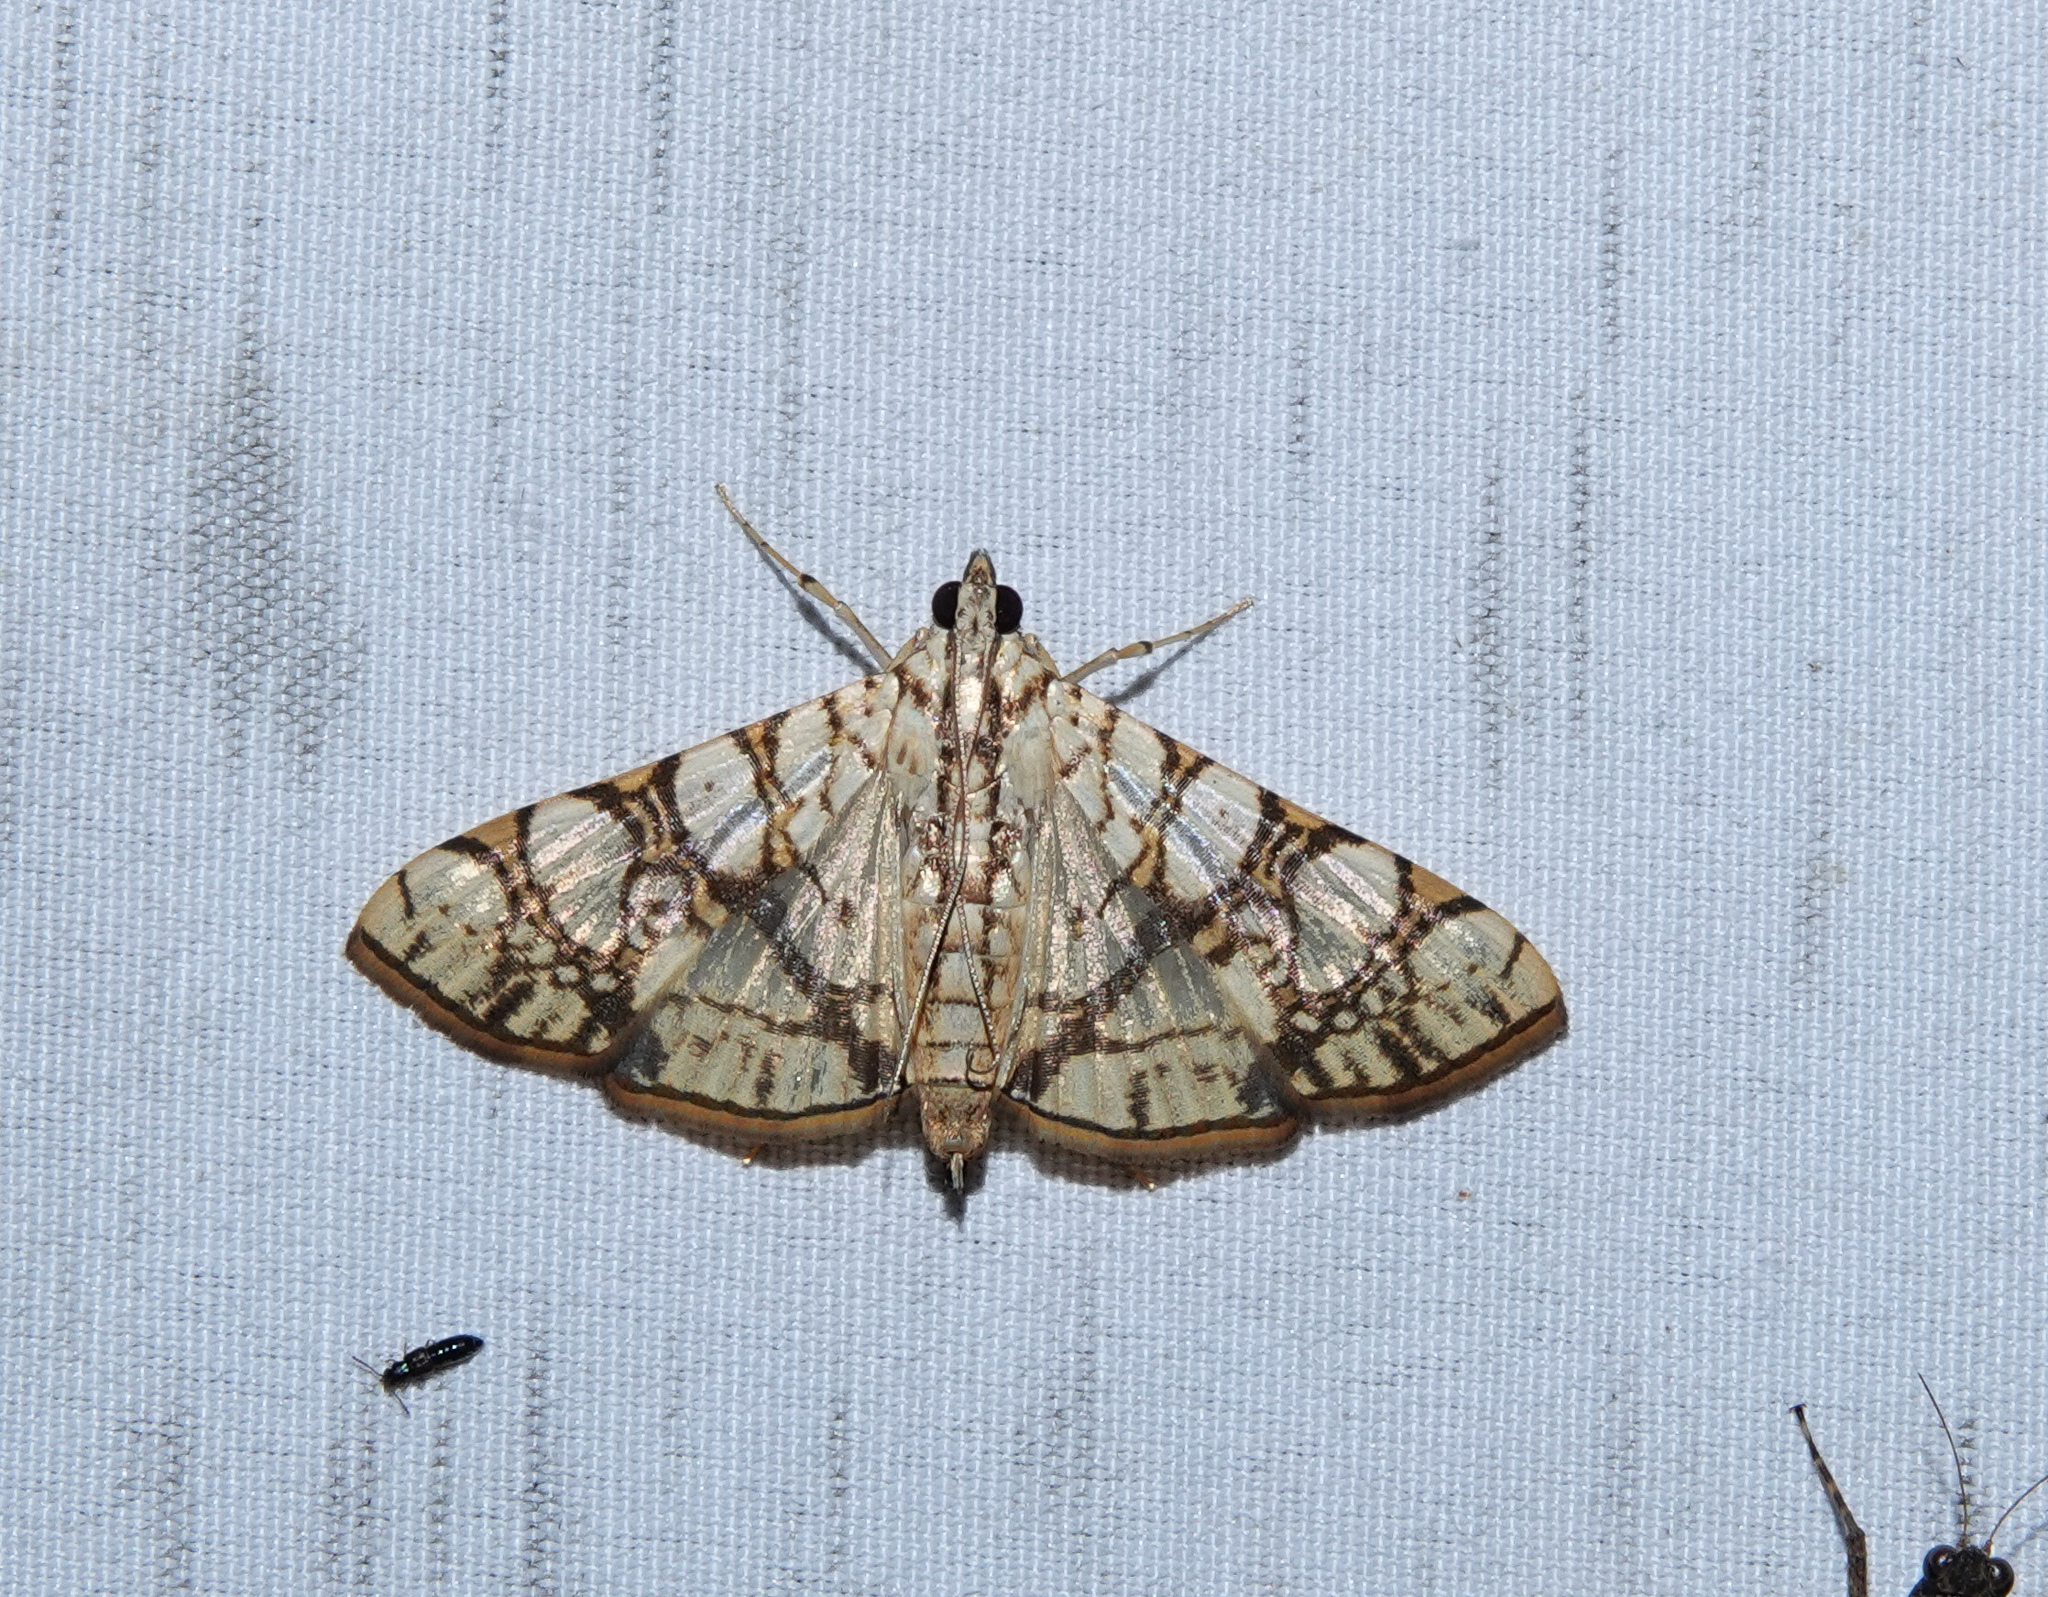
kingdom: Animalia
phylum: Arthropoda
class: Insecta
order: Lepidoptera
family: Crambidae
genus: Glyphodes
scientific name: Glyphodes caesalis
